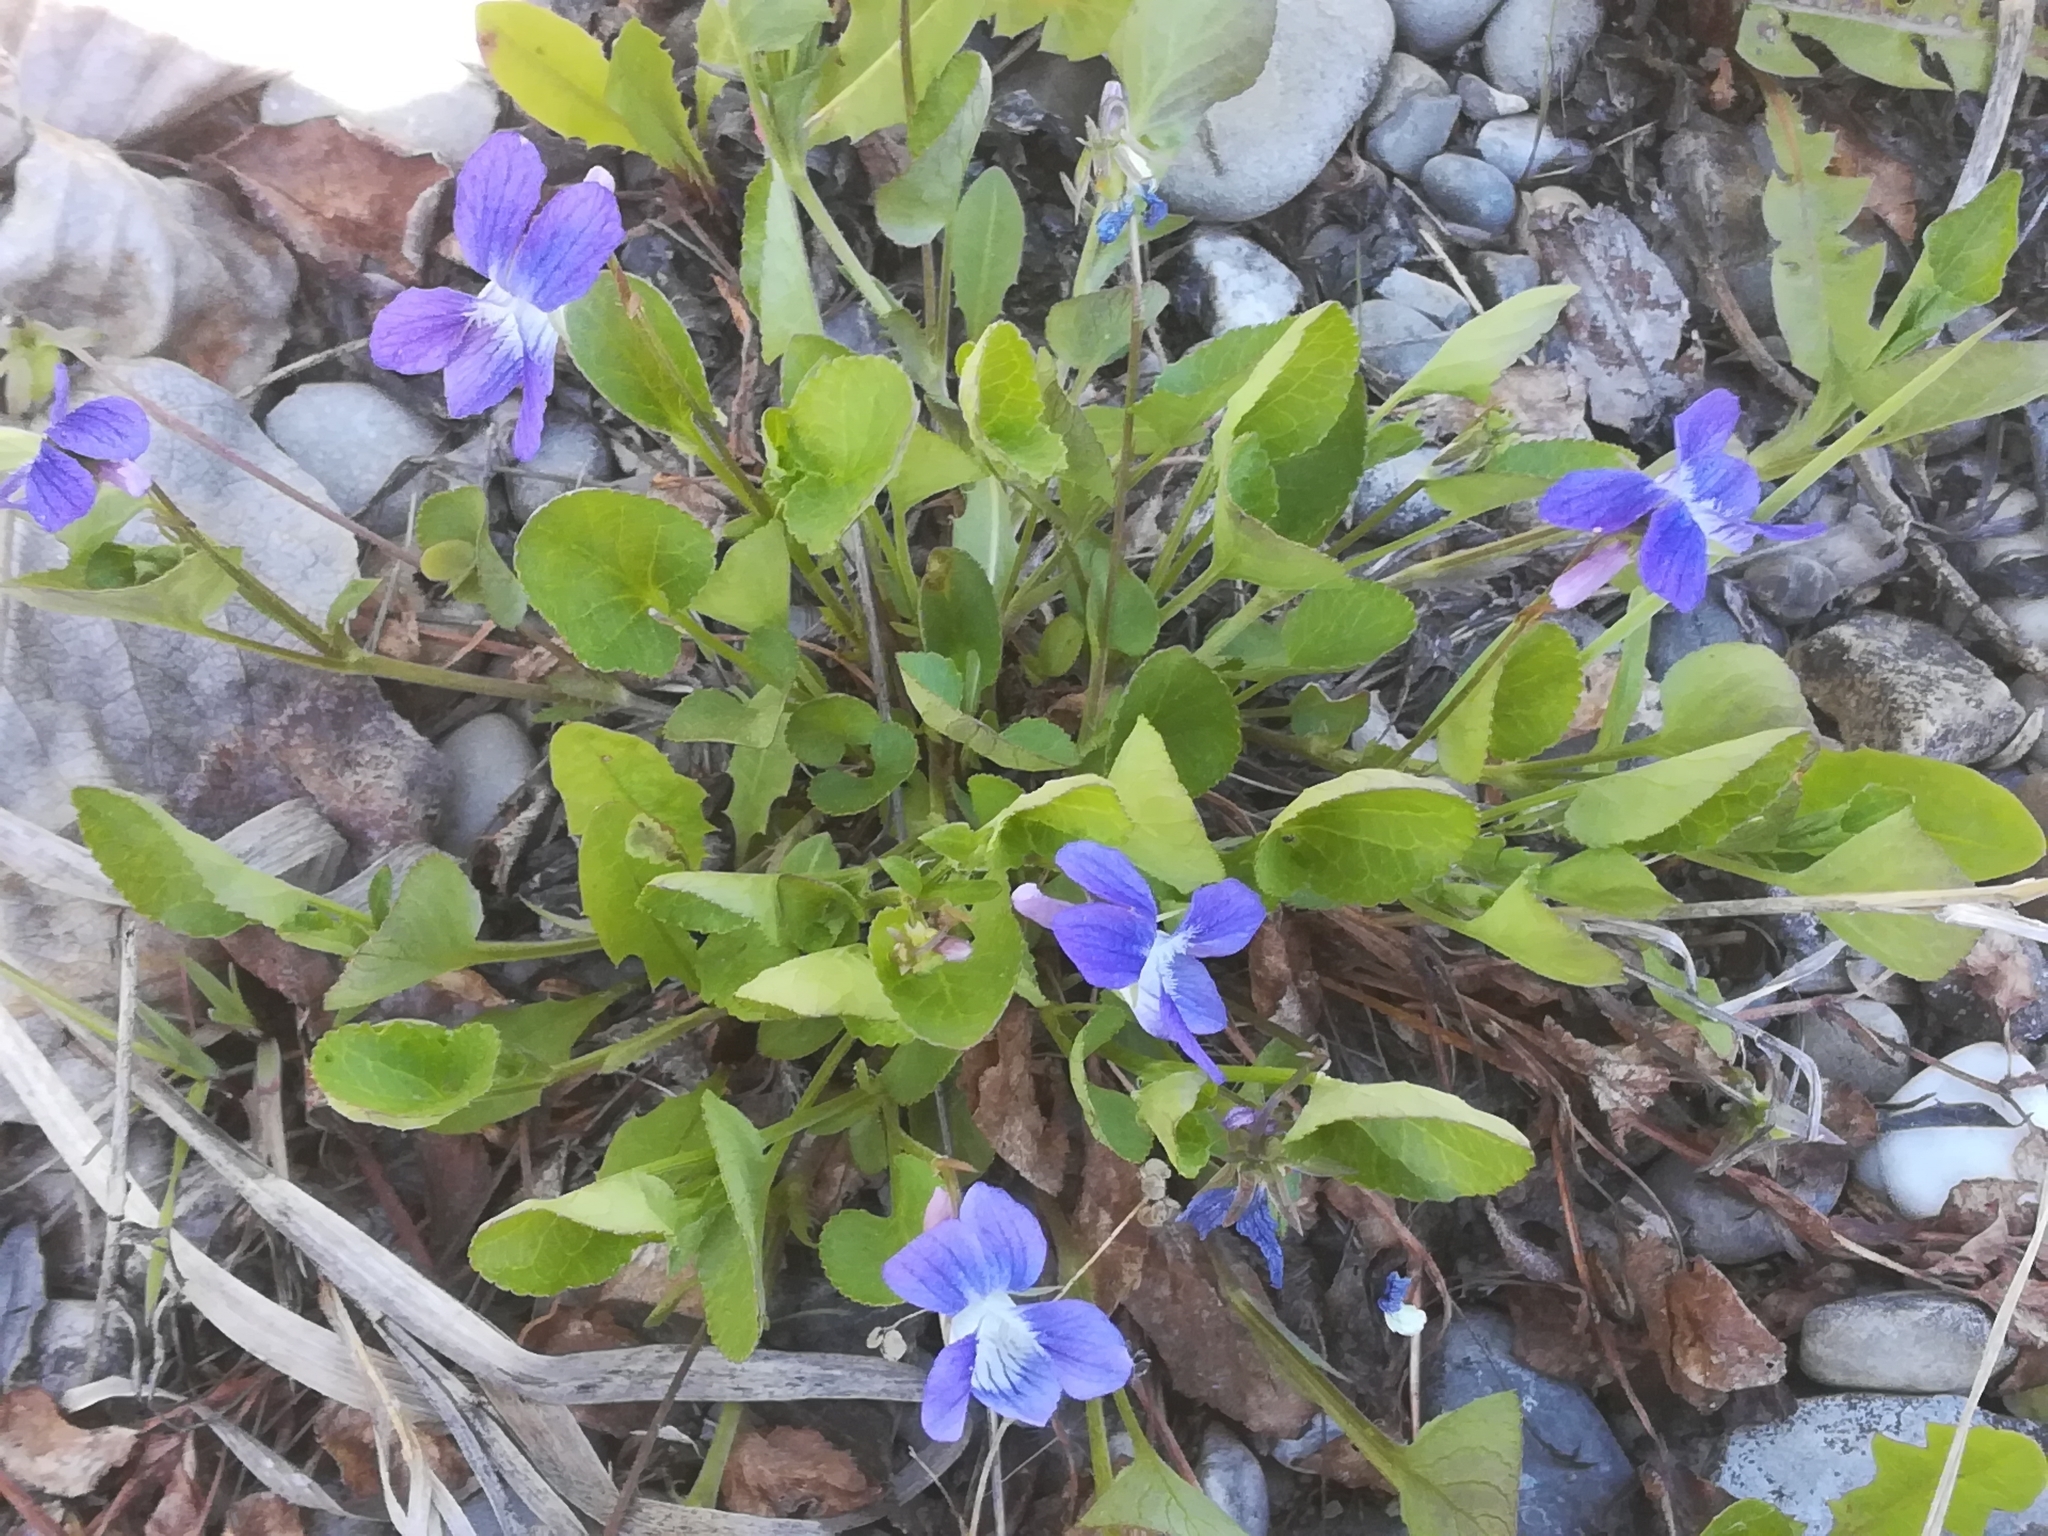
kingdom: Plantae
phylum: Tracheophyta
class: Magnoliopsida
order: Malpighiales
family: Violaceae
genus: Viola
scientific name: Viola adunca
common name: Sand violet
